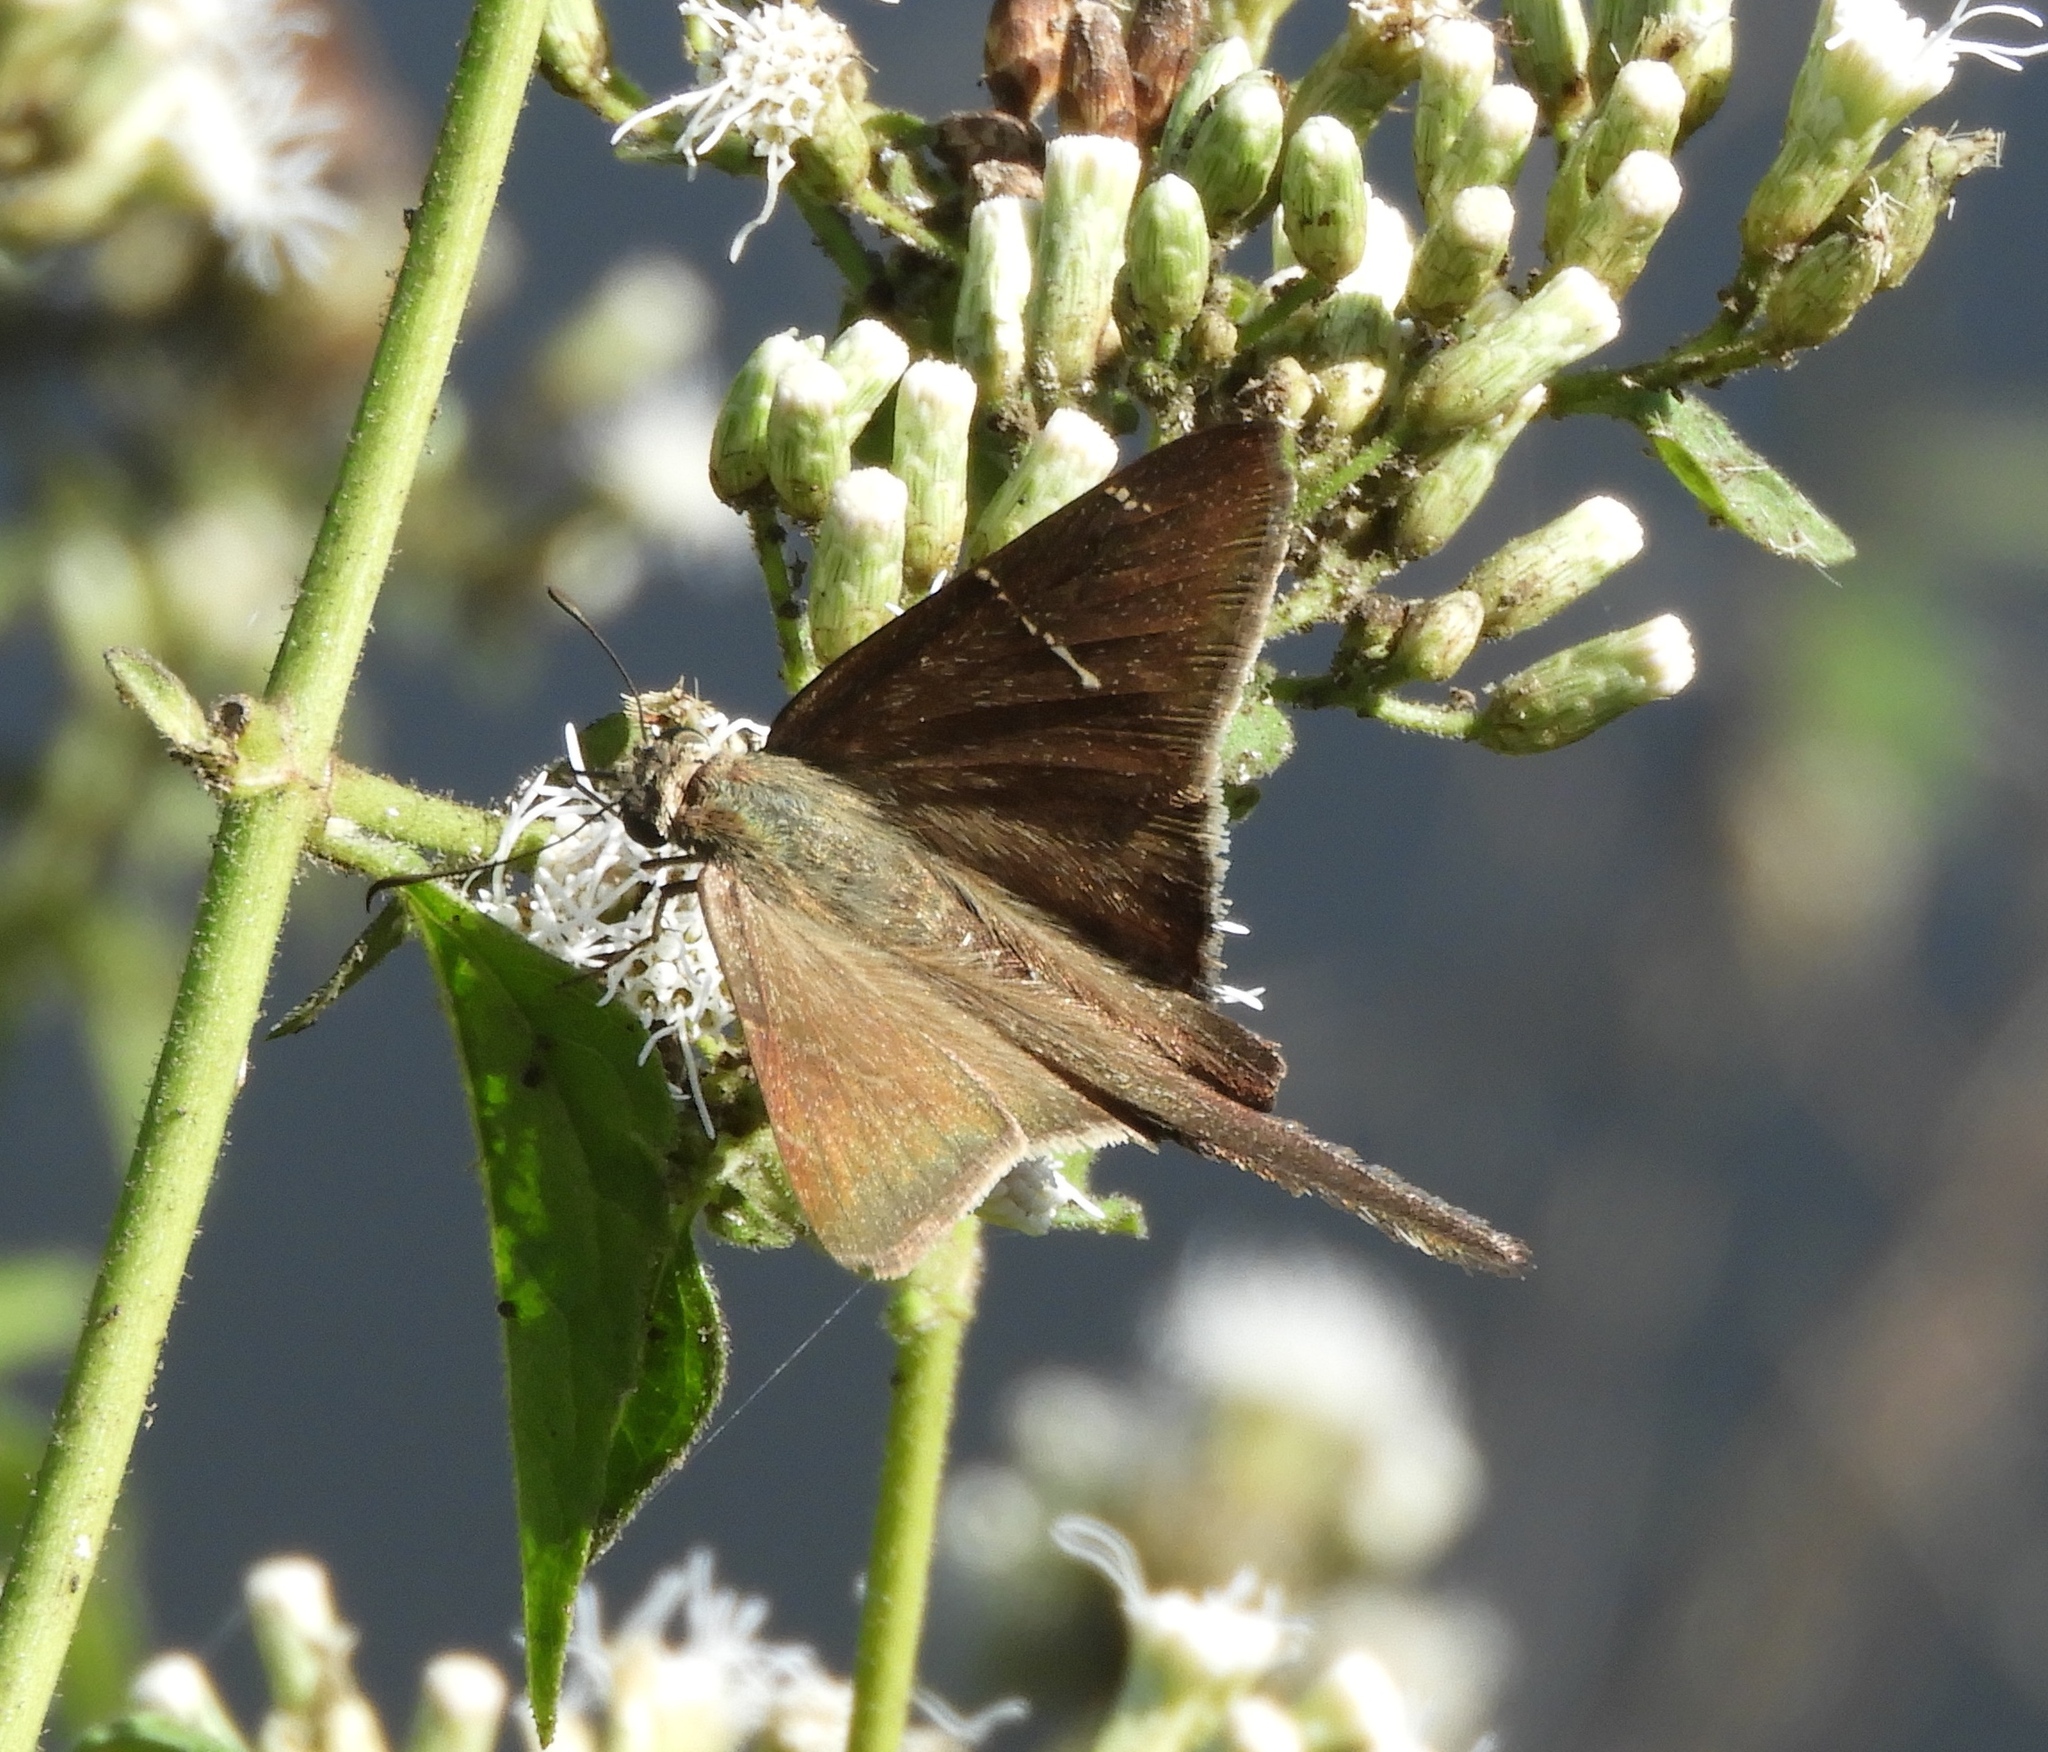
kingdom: Animalia
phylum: Arthropoda
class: Insecta
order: Lepidoptera
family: Hesperiidae
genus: Urbanus
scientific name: Urbanus procne
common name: Brown longtail
